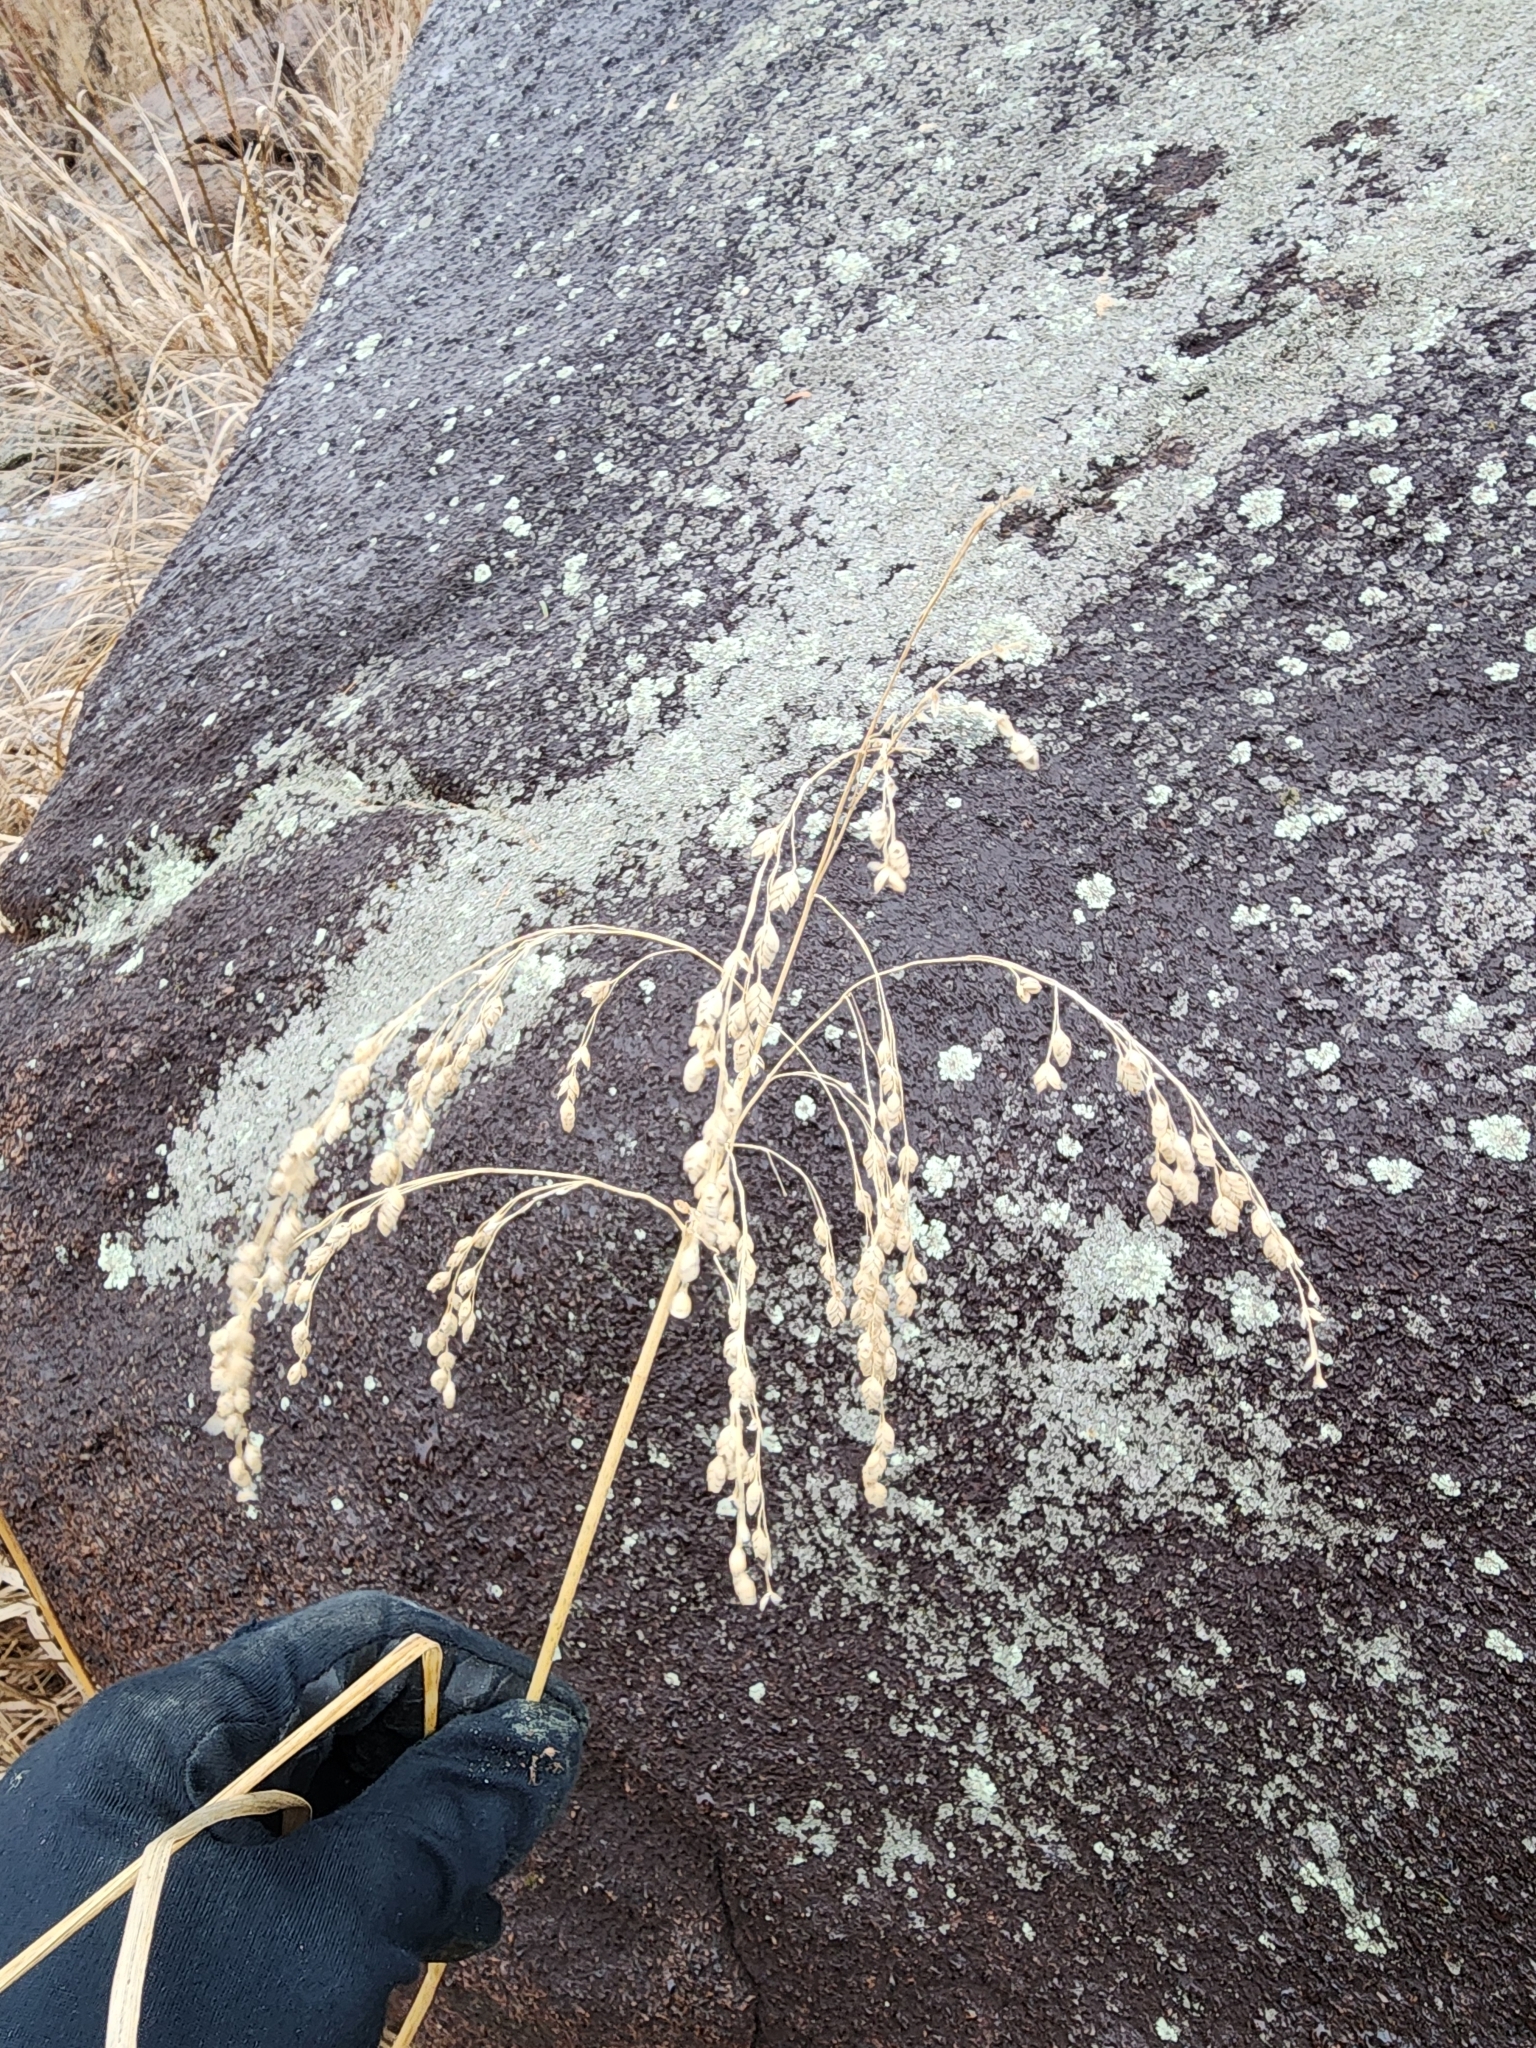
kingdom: Plantae
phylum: Tracheophyta
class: Liliopsida
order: Poales
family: Poaceae
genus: Glyceria
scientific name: Glyceria canadensis
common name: Canada mannagrass
